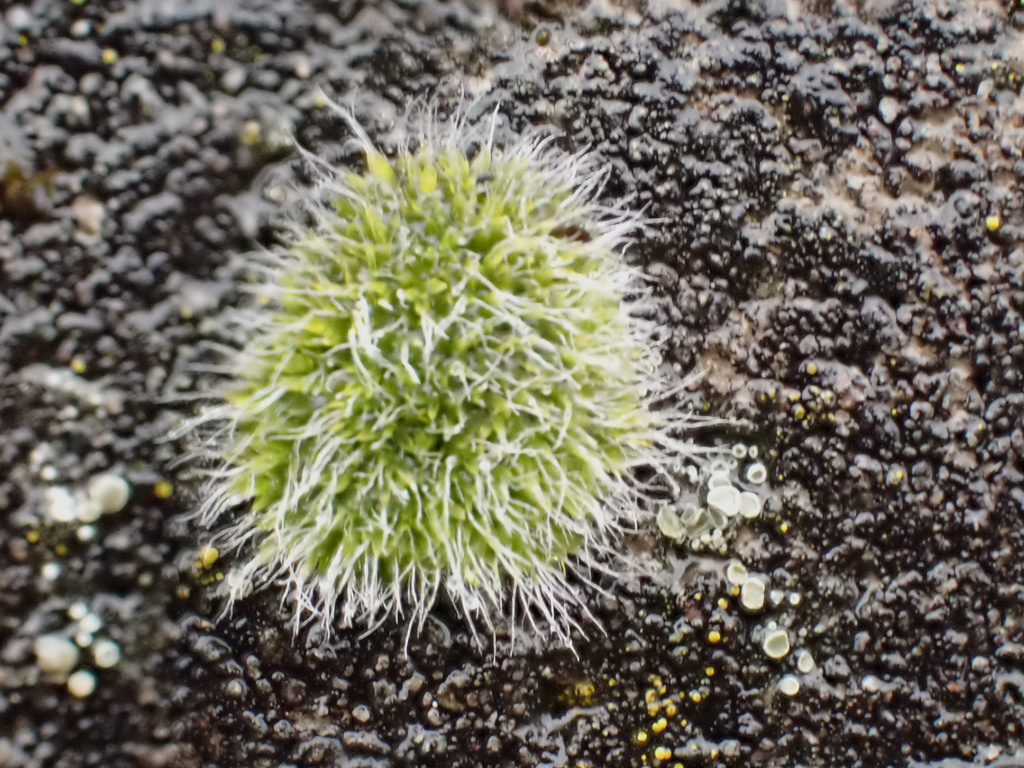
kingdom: Plantae
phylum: Bryophyta
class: Bryopsida
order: Grimmiales
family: Grimmiaceae
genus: Grimmia
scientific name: Grimmia pulvinata
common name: Grey-cushioned grimmia
